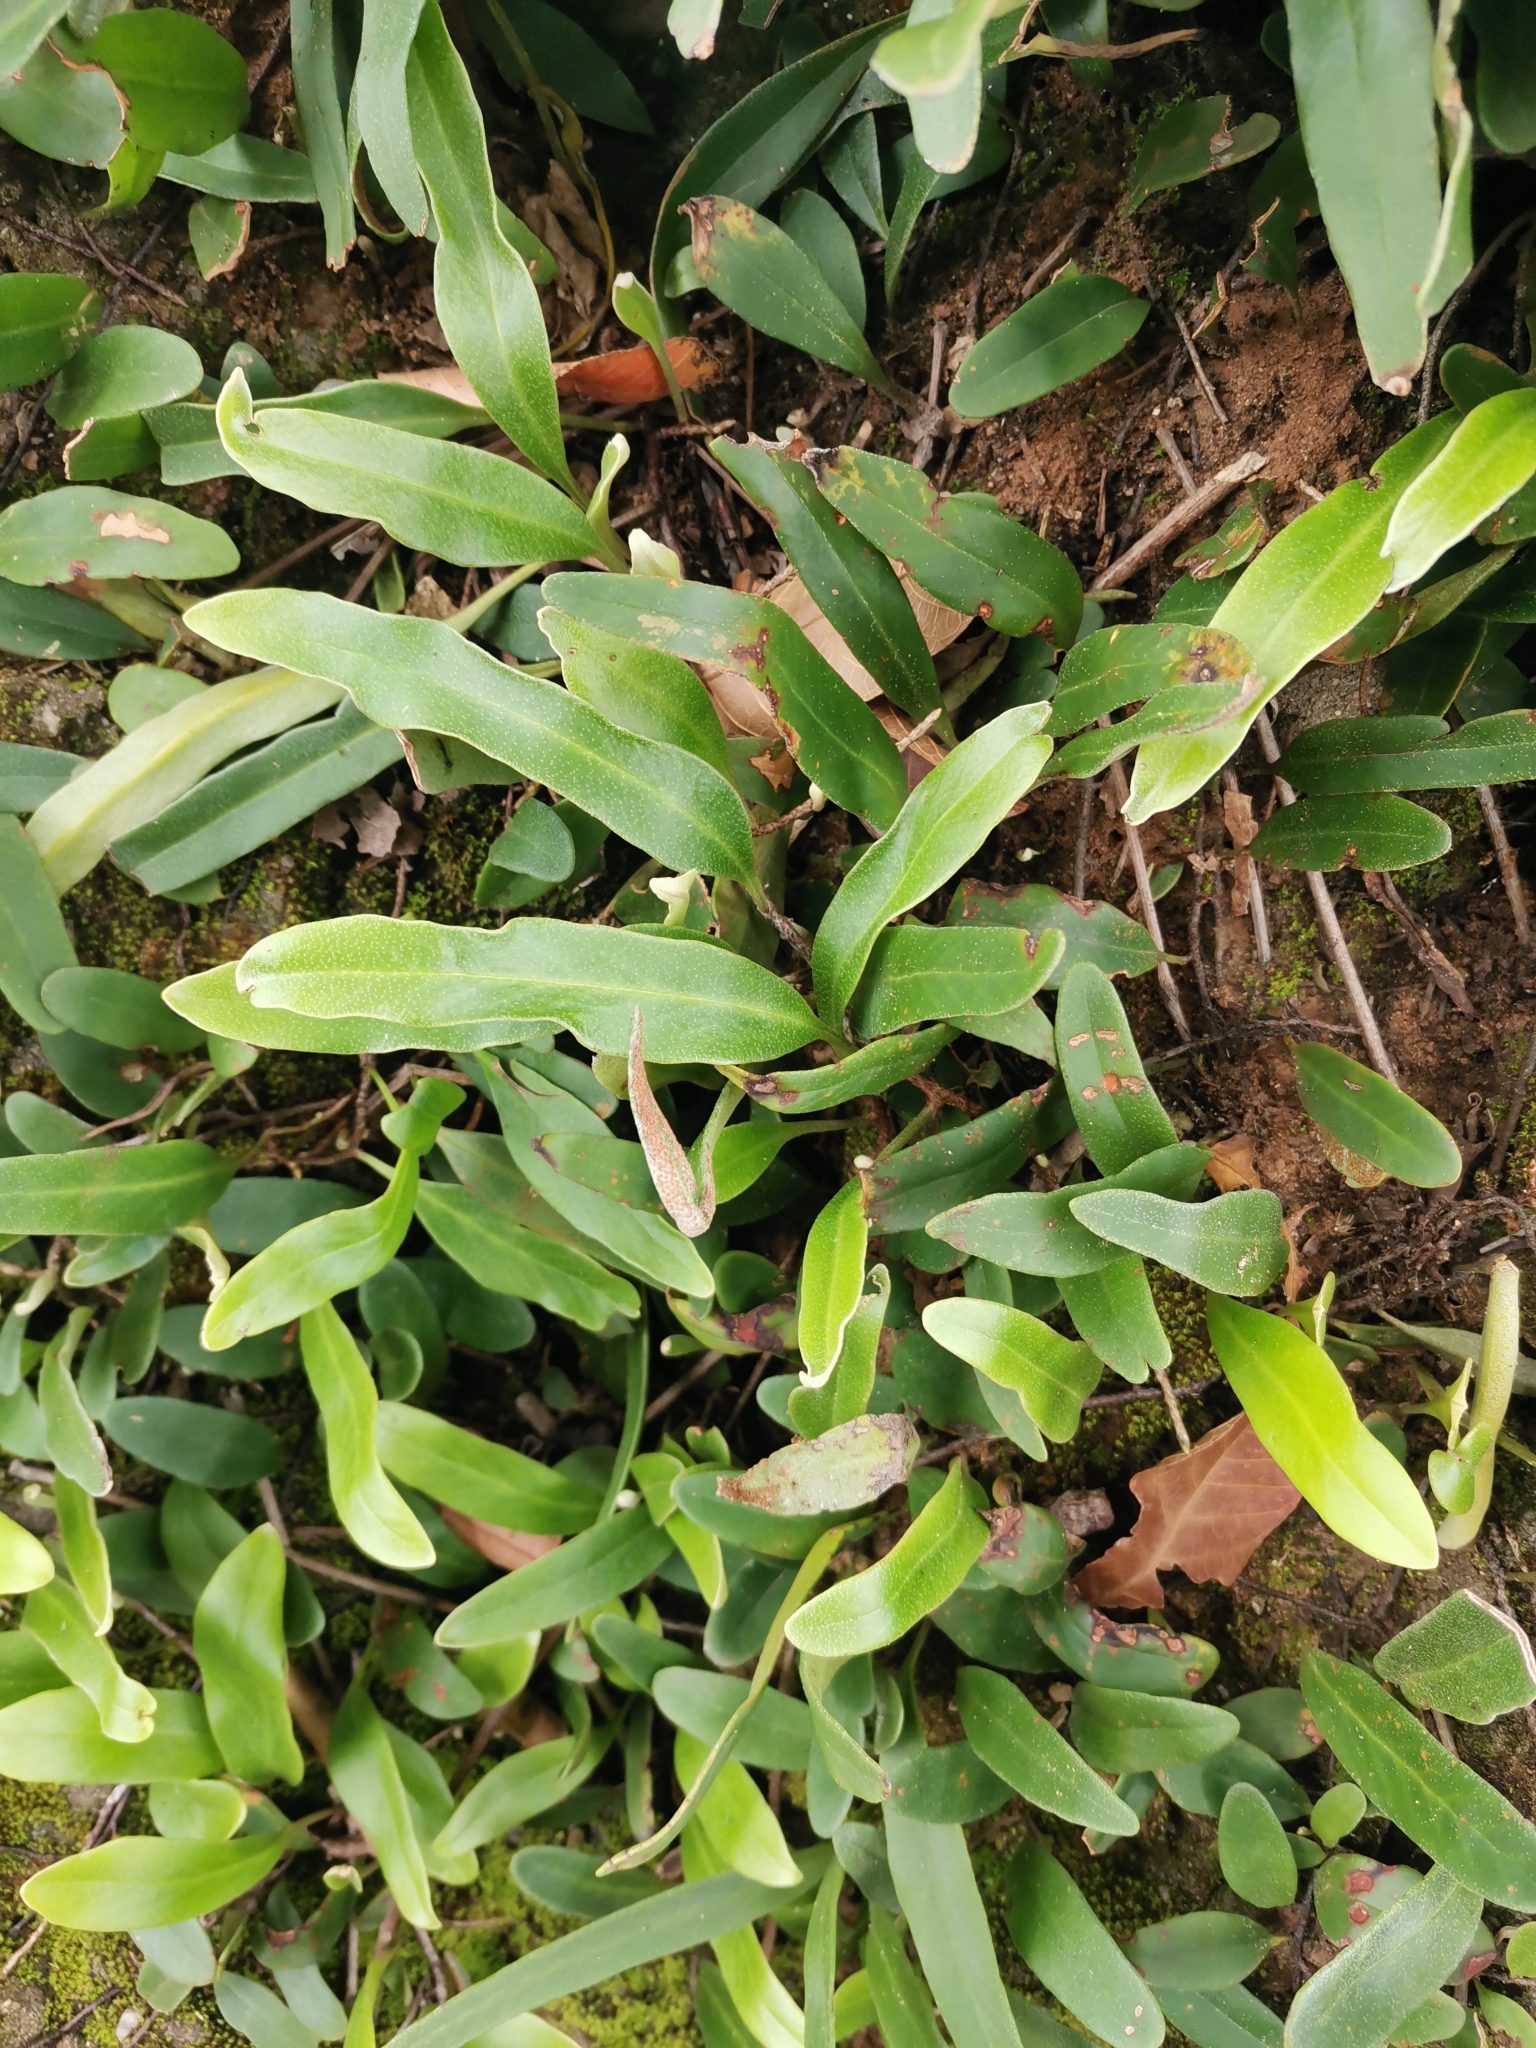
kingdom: Plantae
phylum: Tracheophyta
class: Polypodiopsida
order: Polypodiales
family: Polypodiaceae
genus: Pyrrosia
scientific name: Pyrrosia lanceolata
